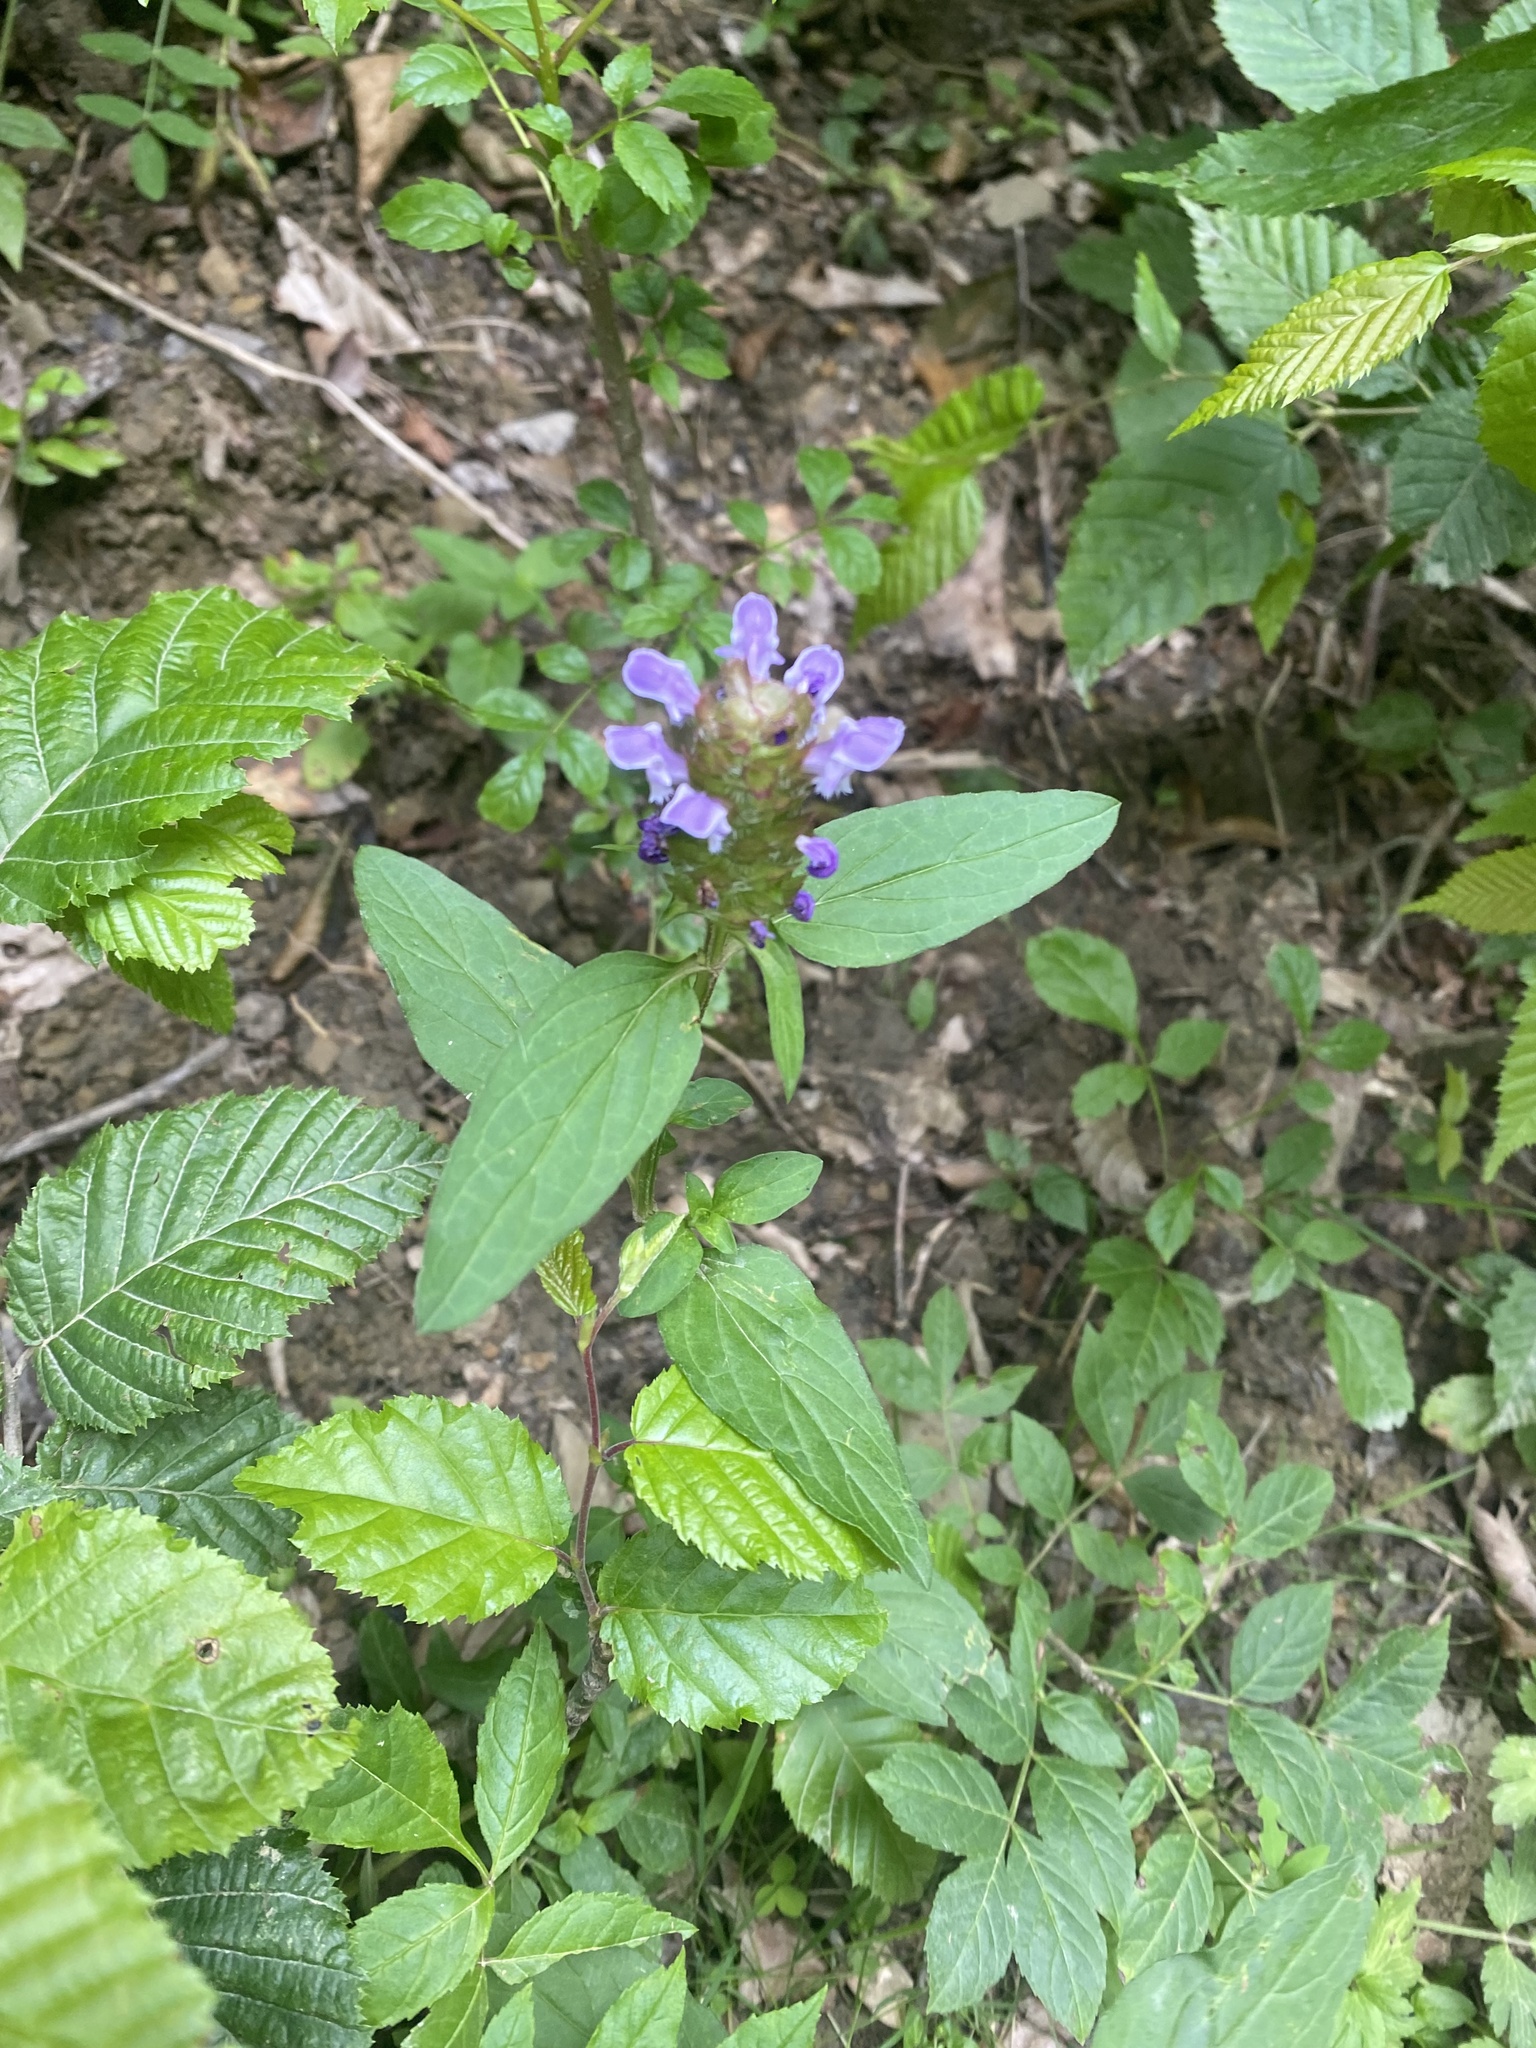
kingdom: Plantae
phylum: Tracheophyta
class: Magnoliopsida
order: Lamiales
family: Lamiaceae
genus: Prunella
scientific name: Prunella vulgaris
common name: Heal-all
